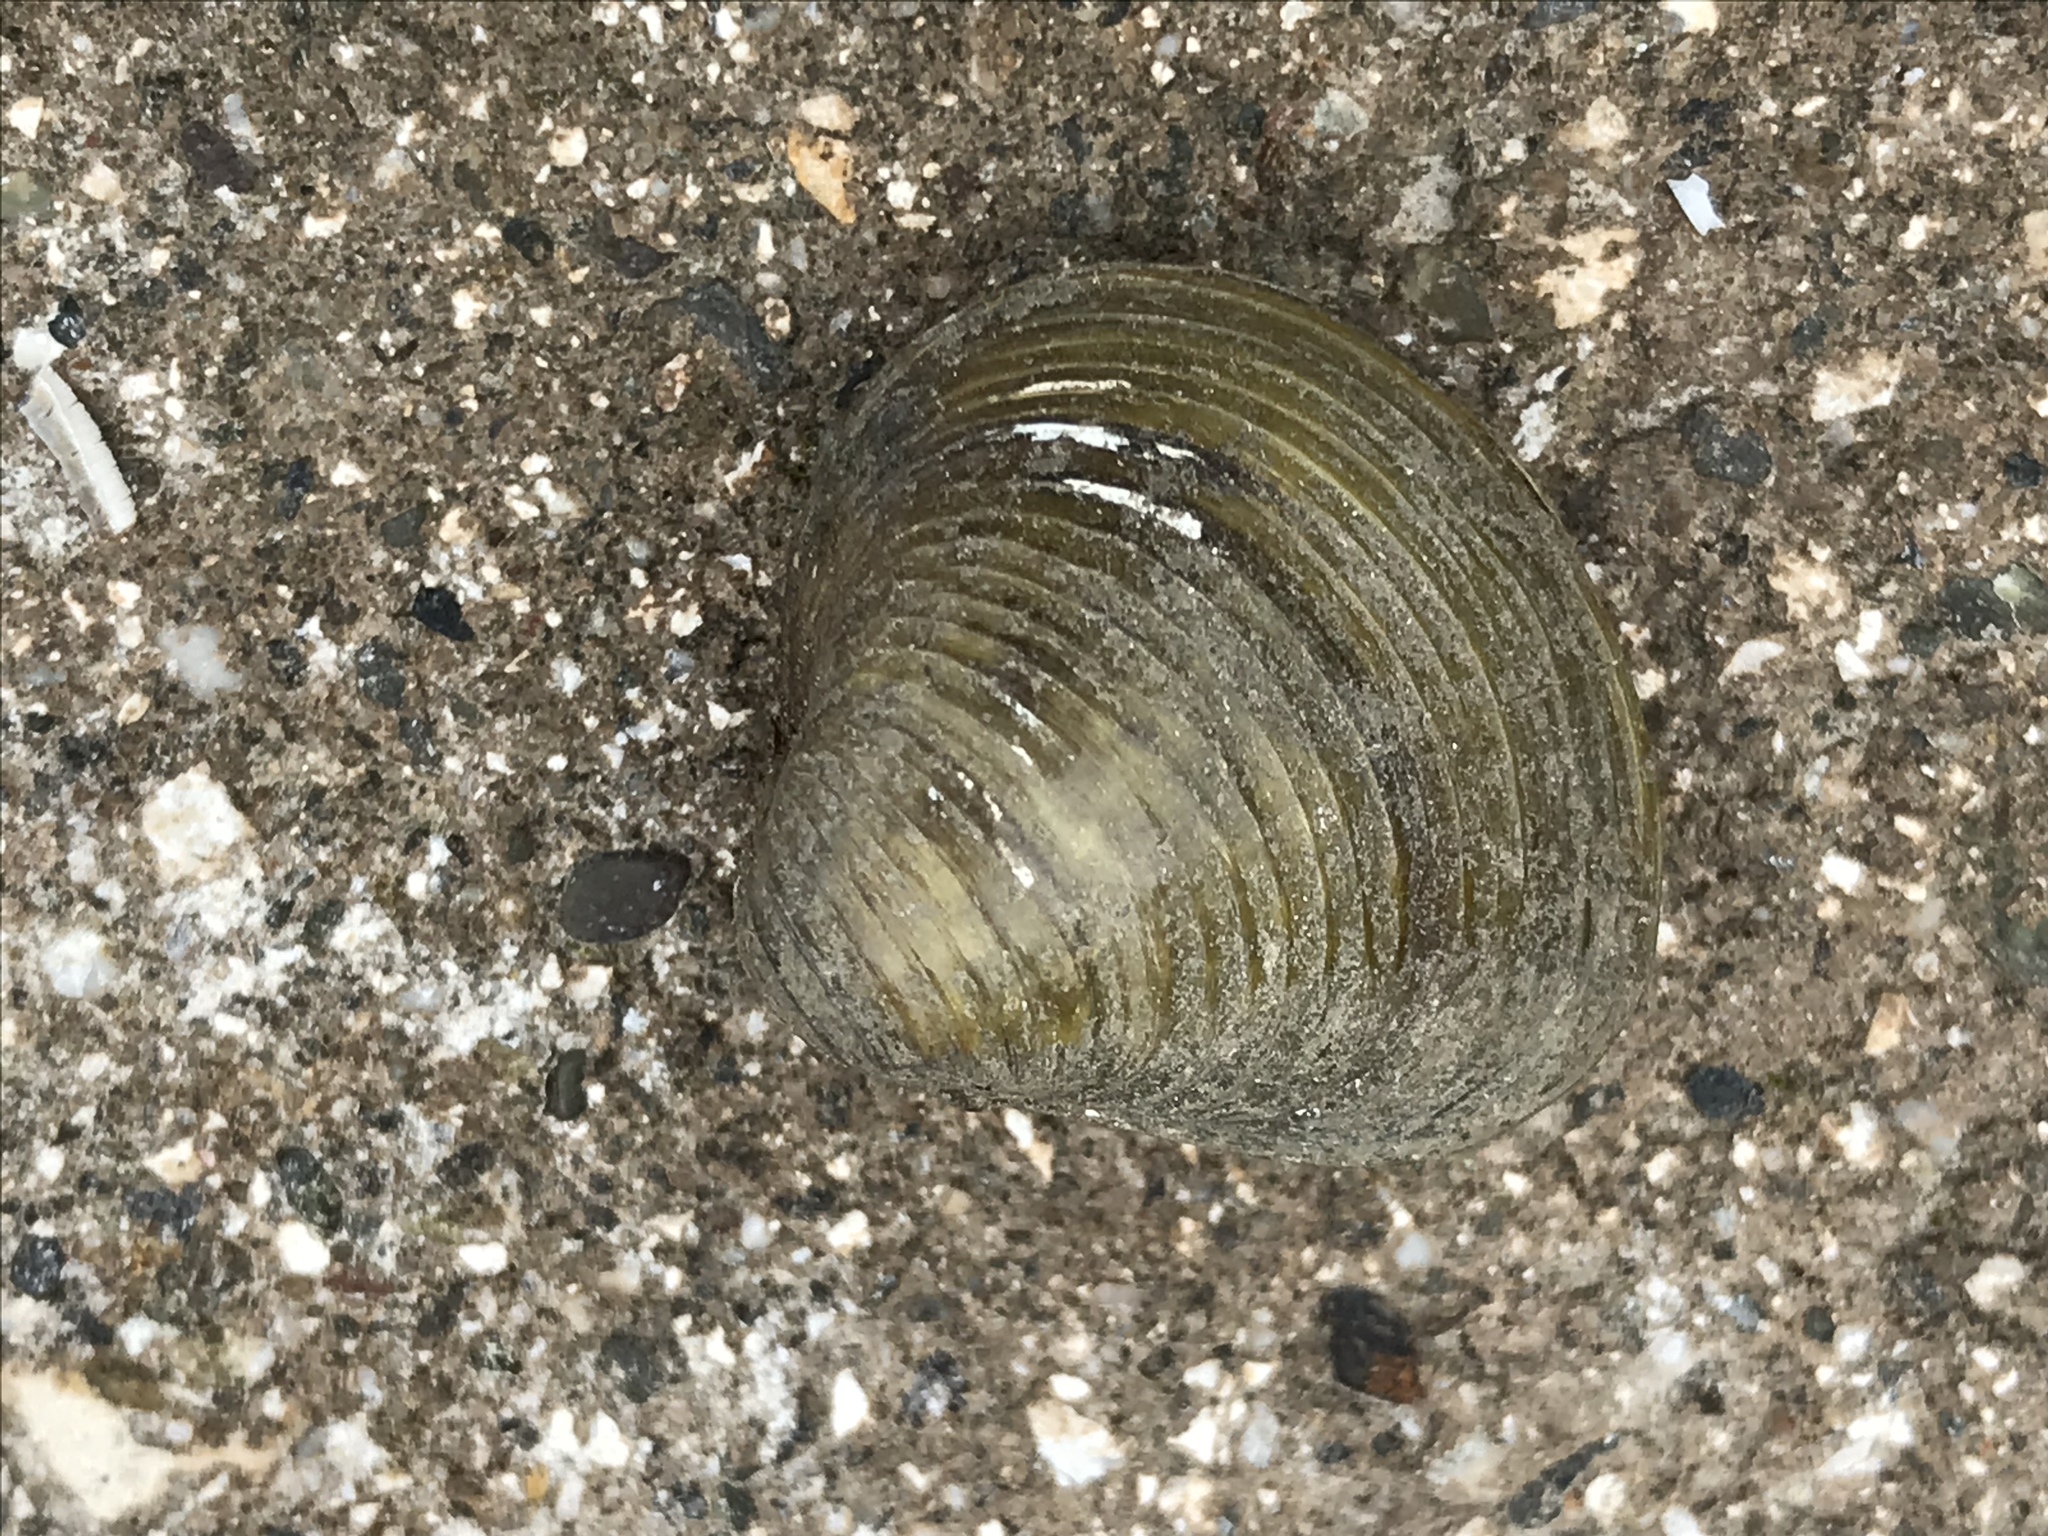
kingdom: Animalia
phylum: Mollusca
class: Bivalvia
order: Venerida
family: Cyrenidae
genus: Corbicula
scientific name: Corbicula fluminea
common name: Asian clam
